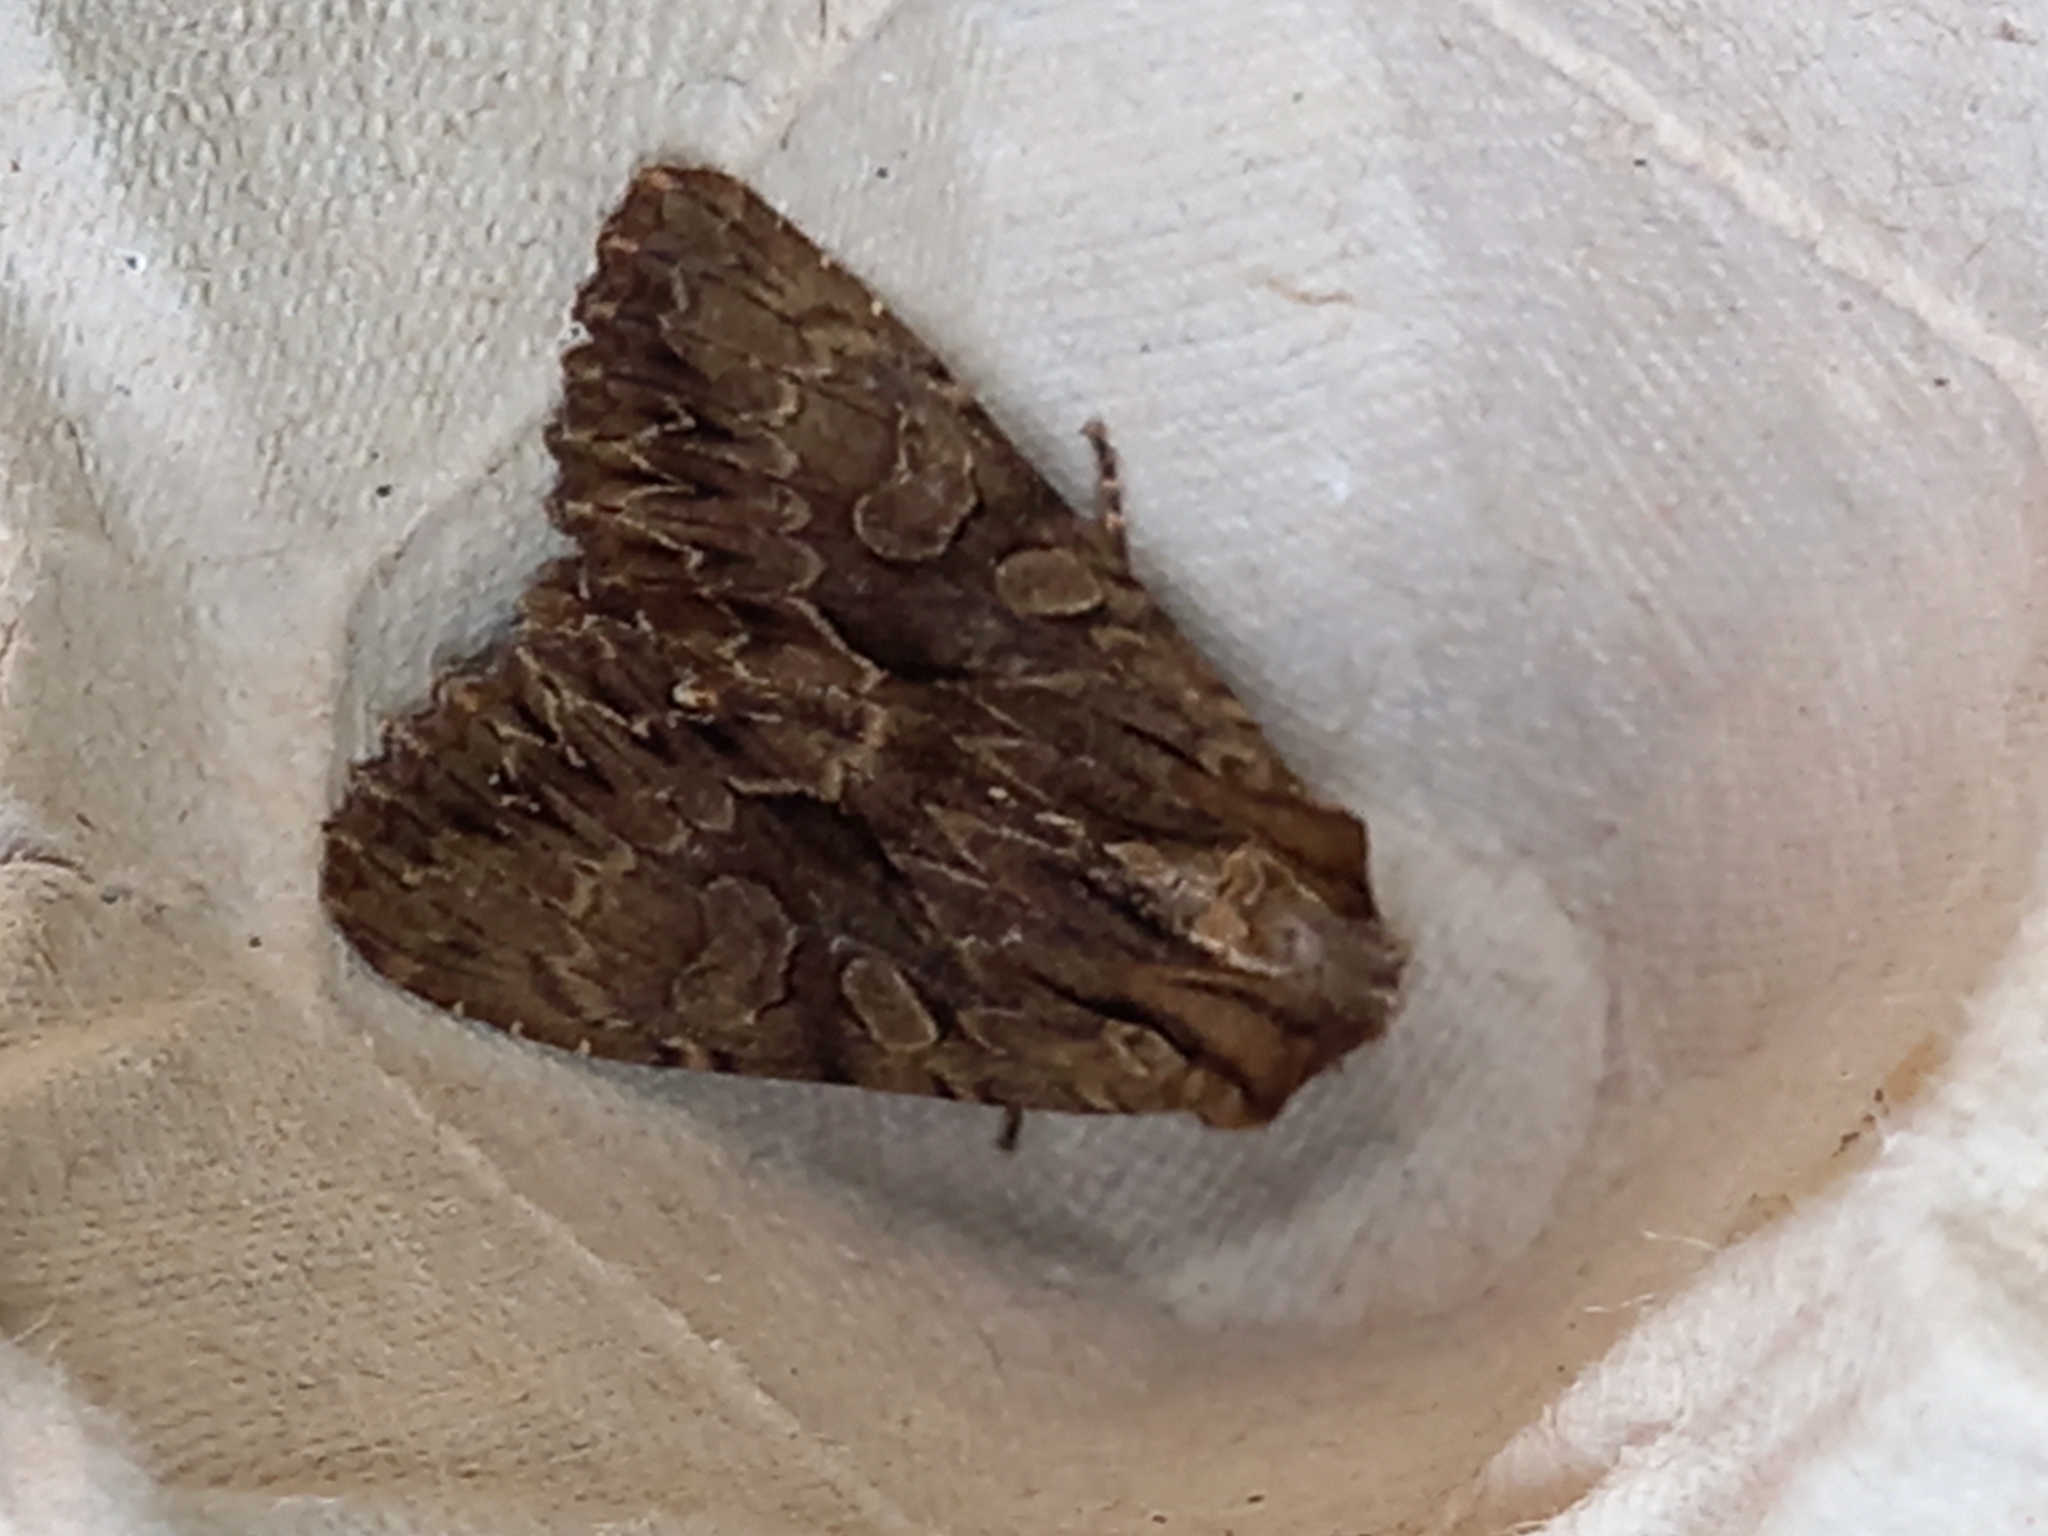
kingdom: Animalia
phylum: Arthropoda
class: Insecta
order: Lepidoptera
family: Noctuidae
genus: Apamea
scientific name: Apamea monoglypha
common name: Dark arches
